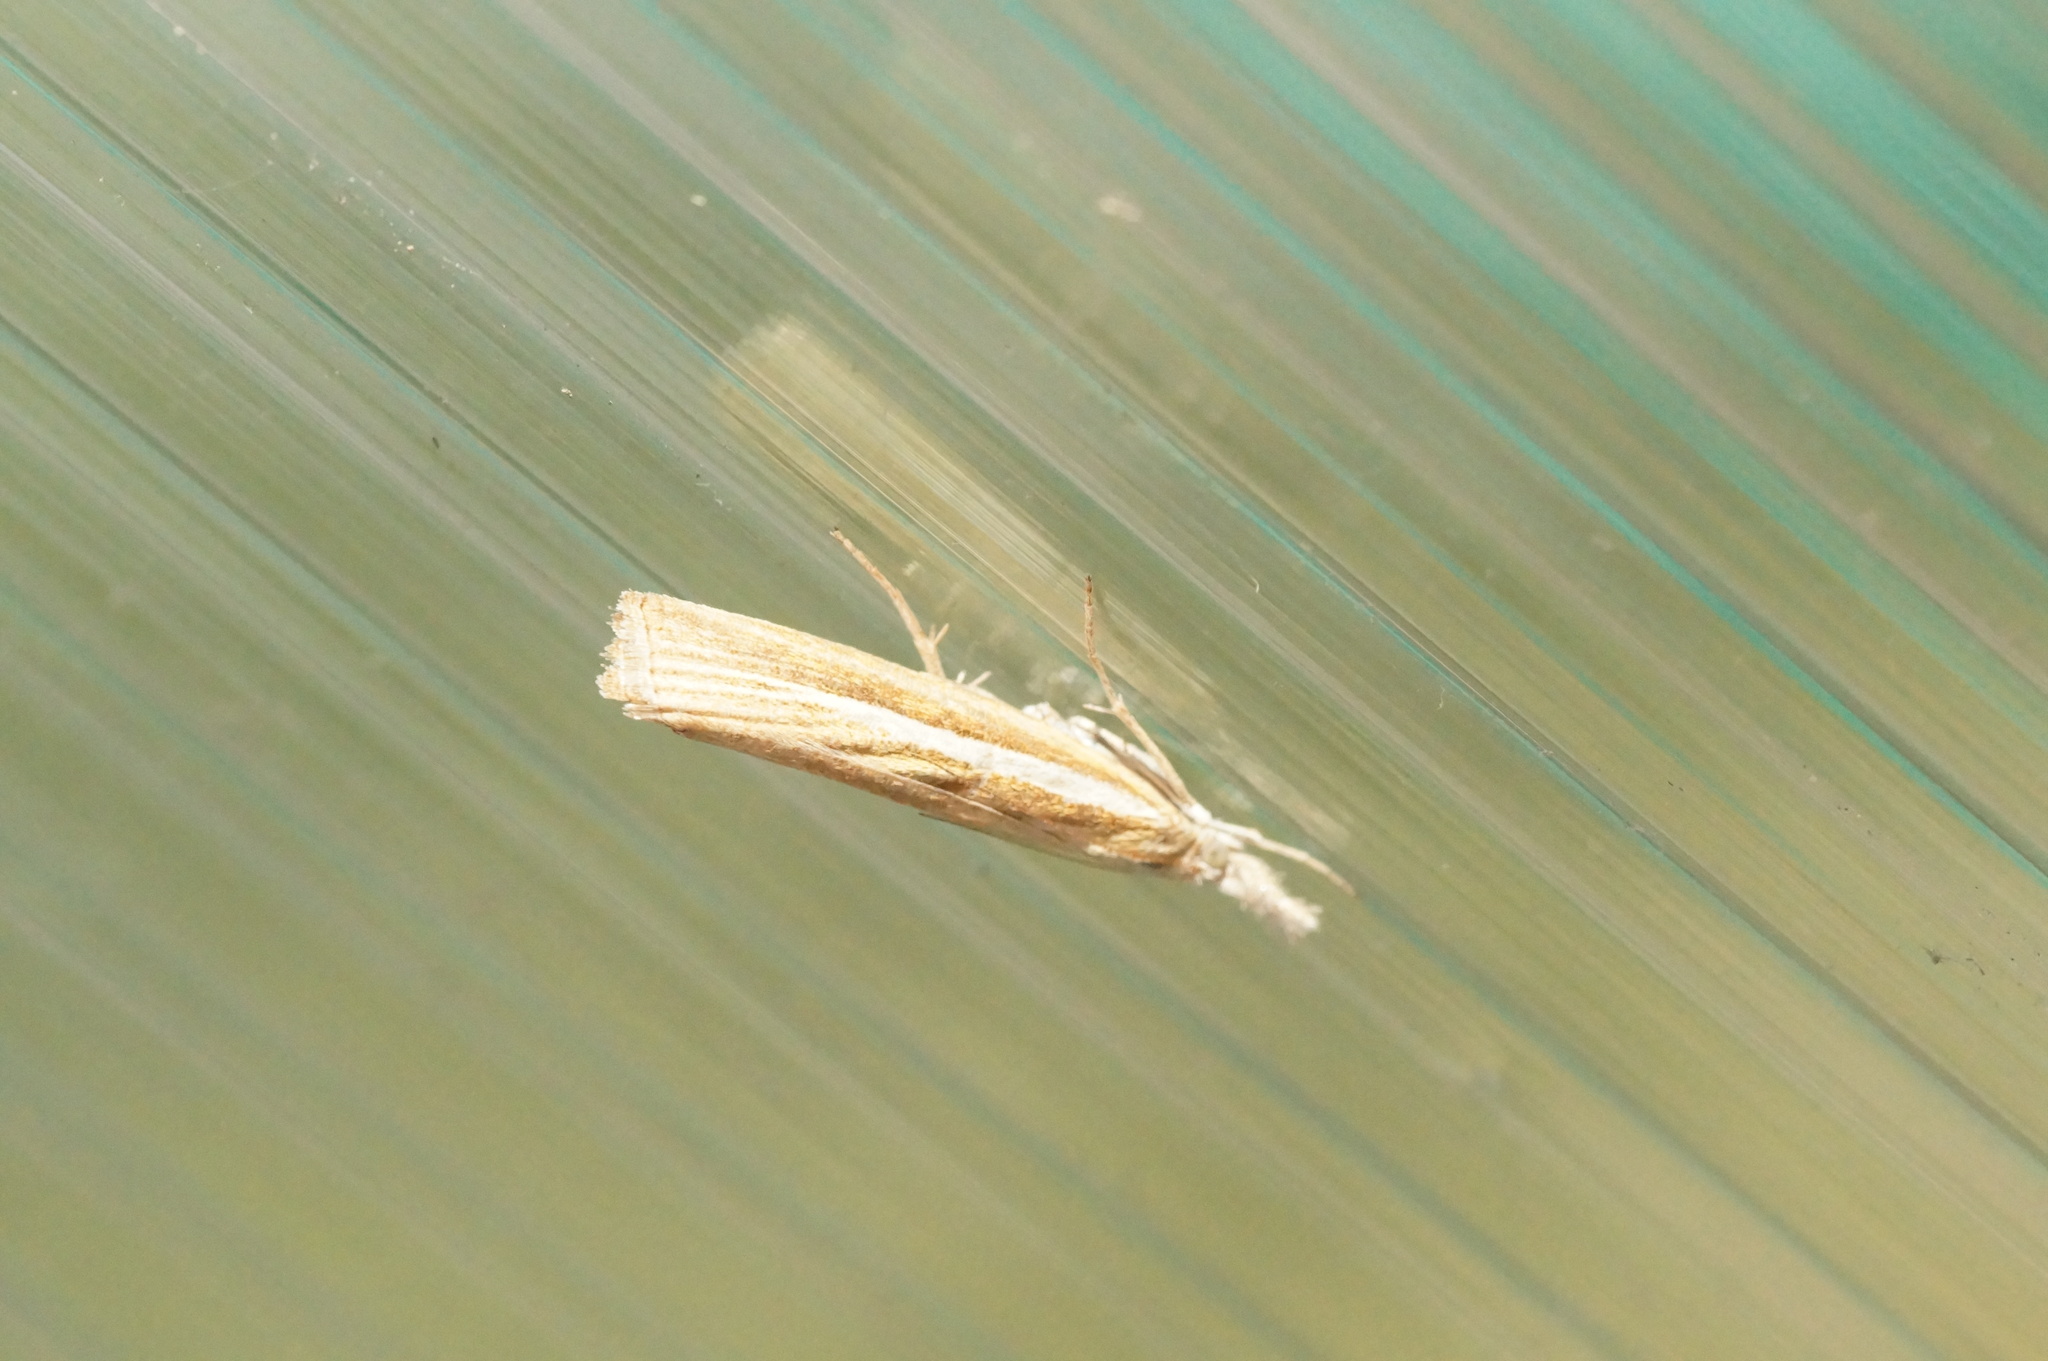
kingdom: Animalia
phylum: Arthropoda
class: Insecta
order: Lepidoptera
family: Crambidae
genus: Agriphila
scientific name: Agriphila selasella
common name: Pale-streak grass-veneer
